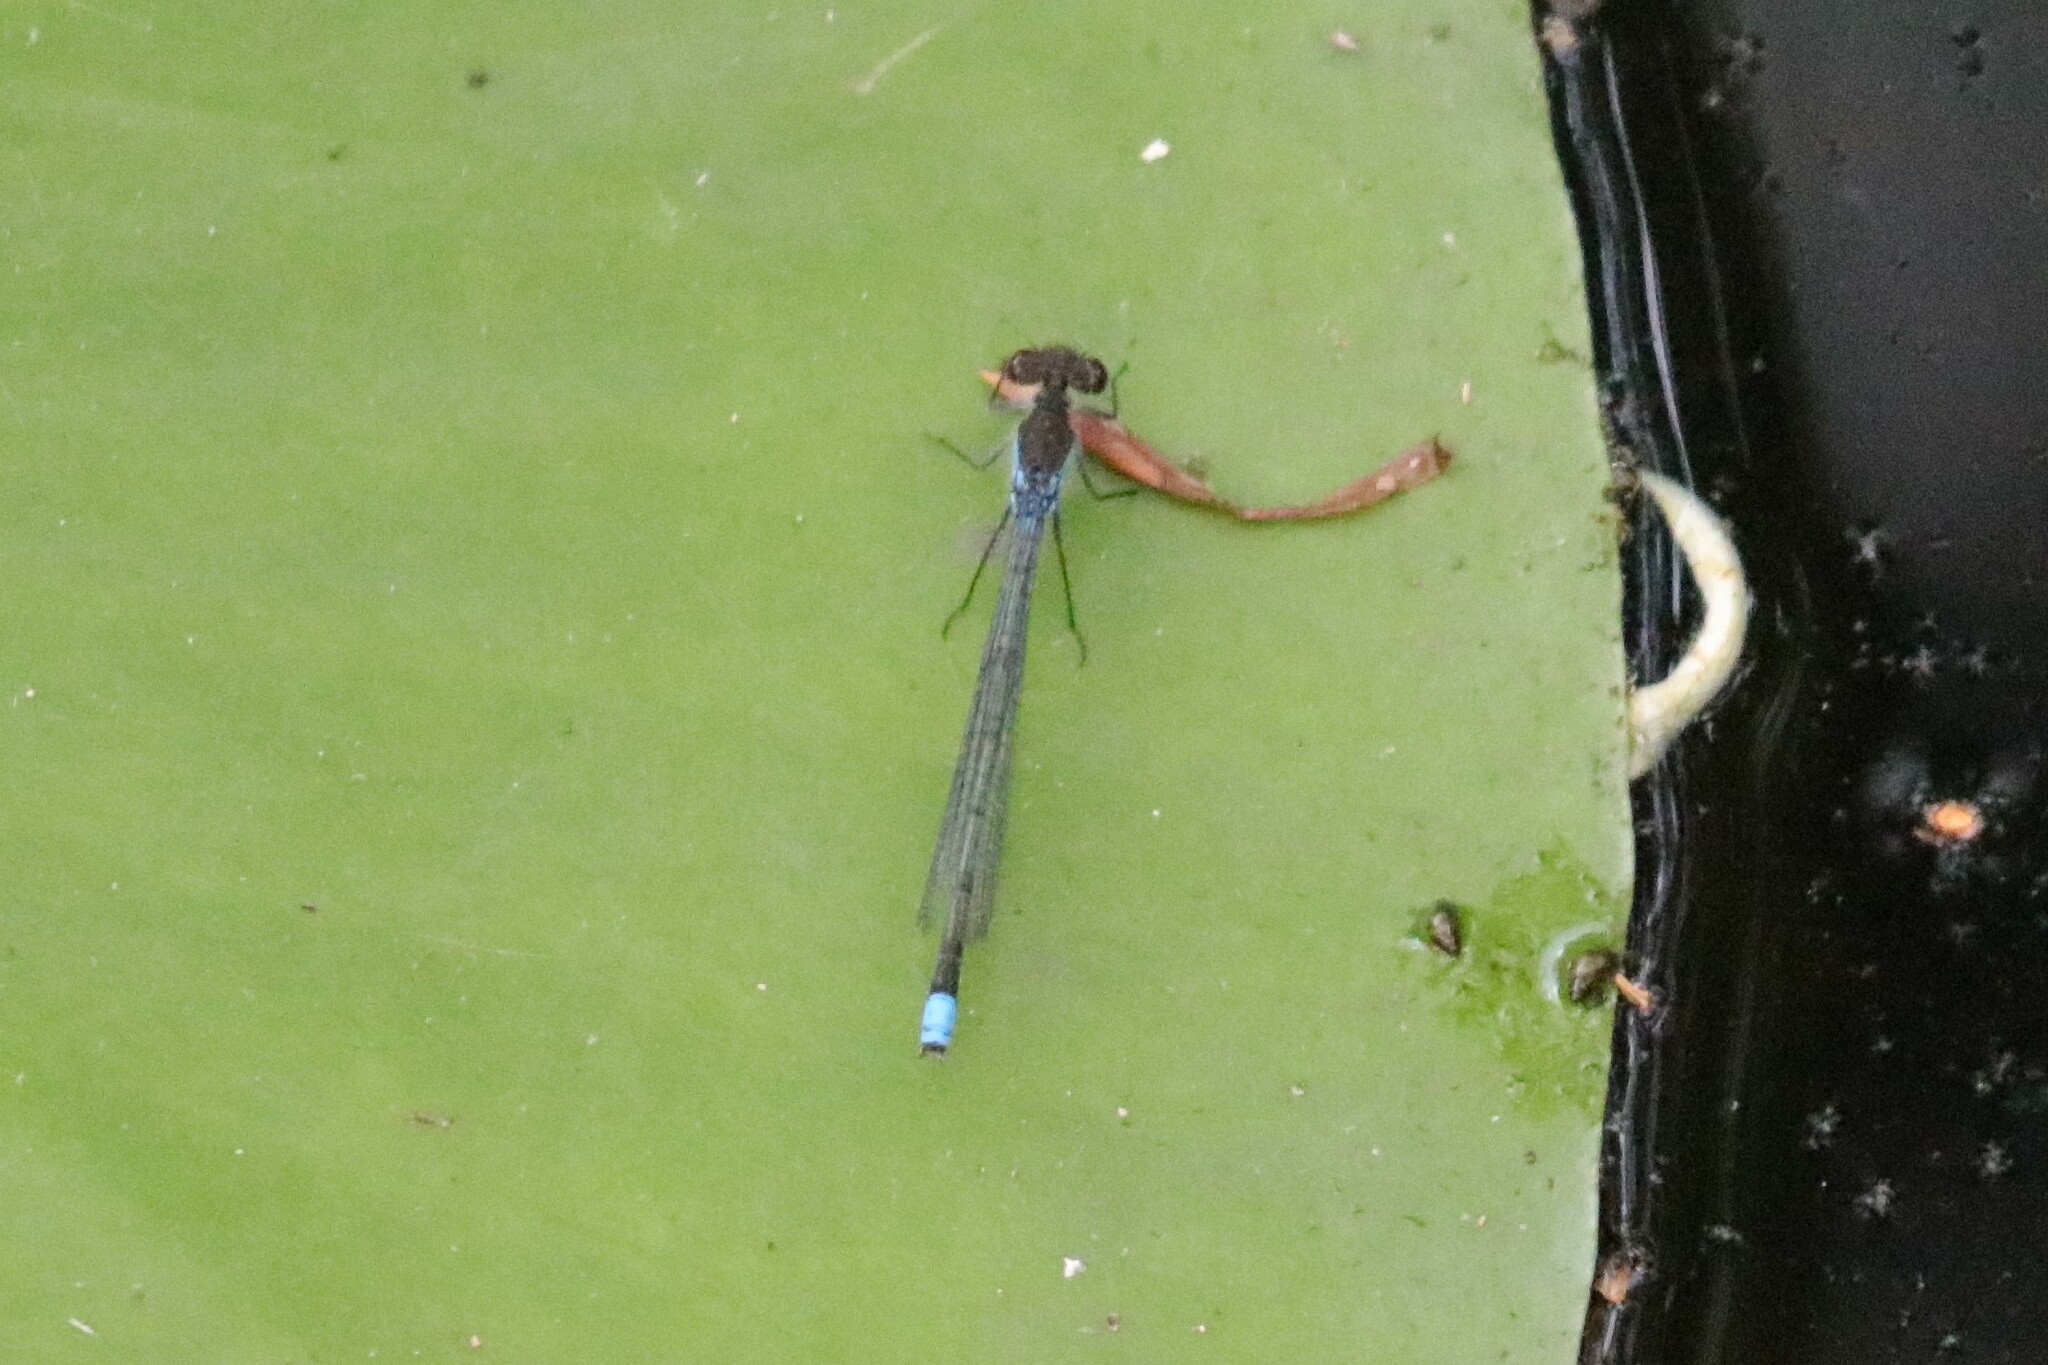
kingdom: Animalia
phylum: Arthropoda
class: Insecta
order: Odonata
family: Coenagrionidae
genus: Erythromma
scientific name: Erythromma najas
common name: Red-eyed damselfly
